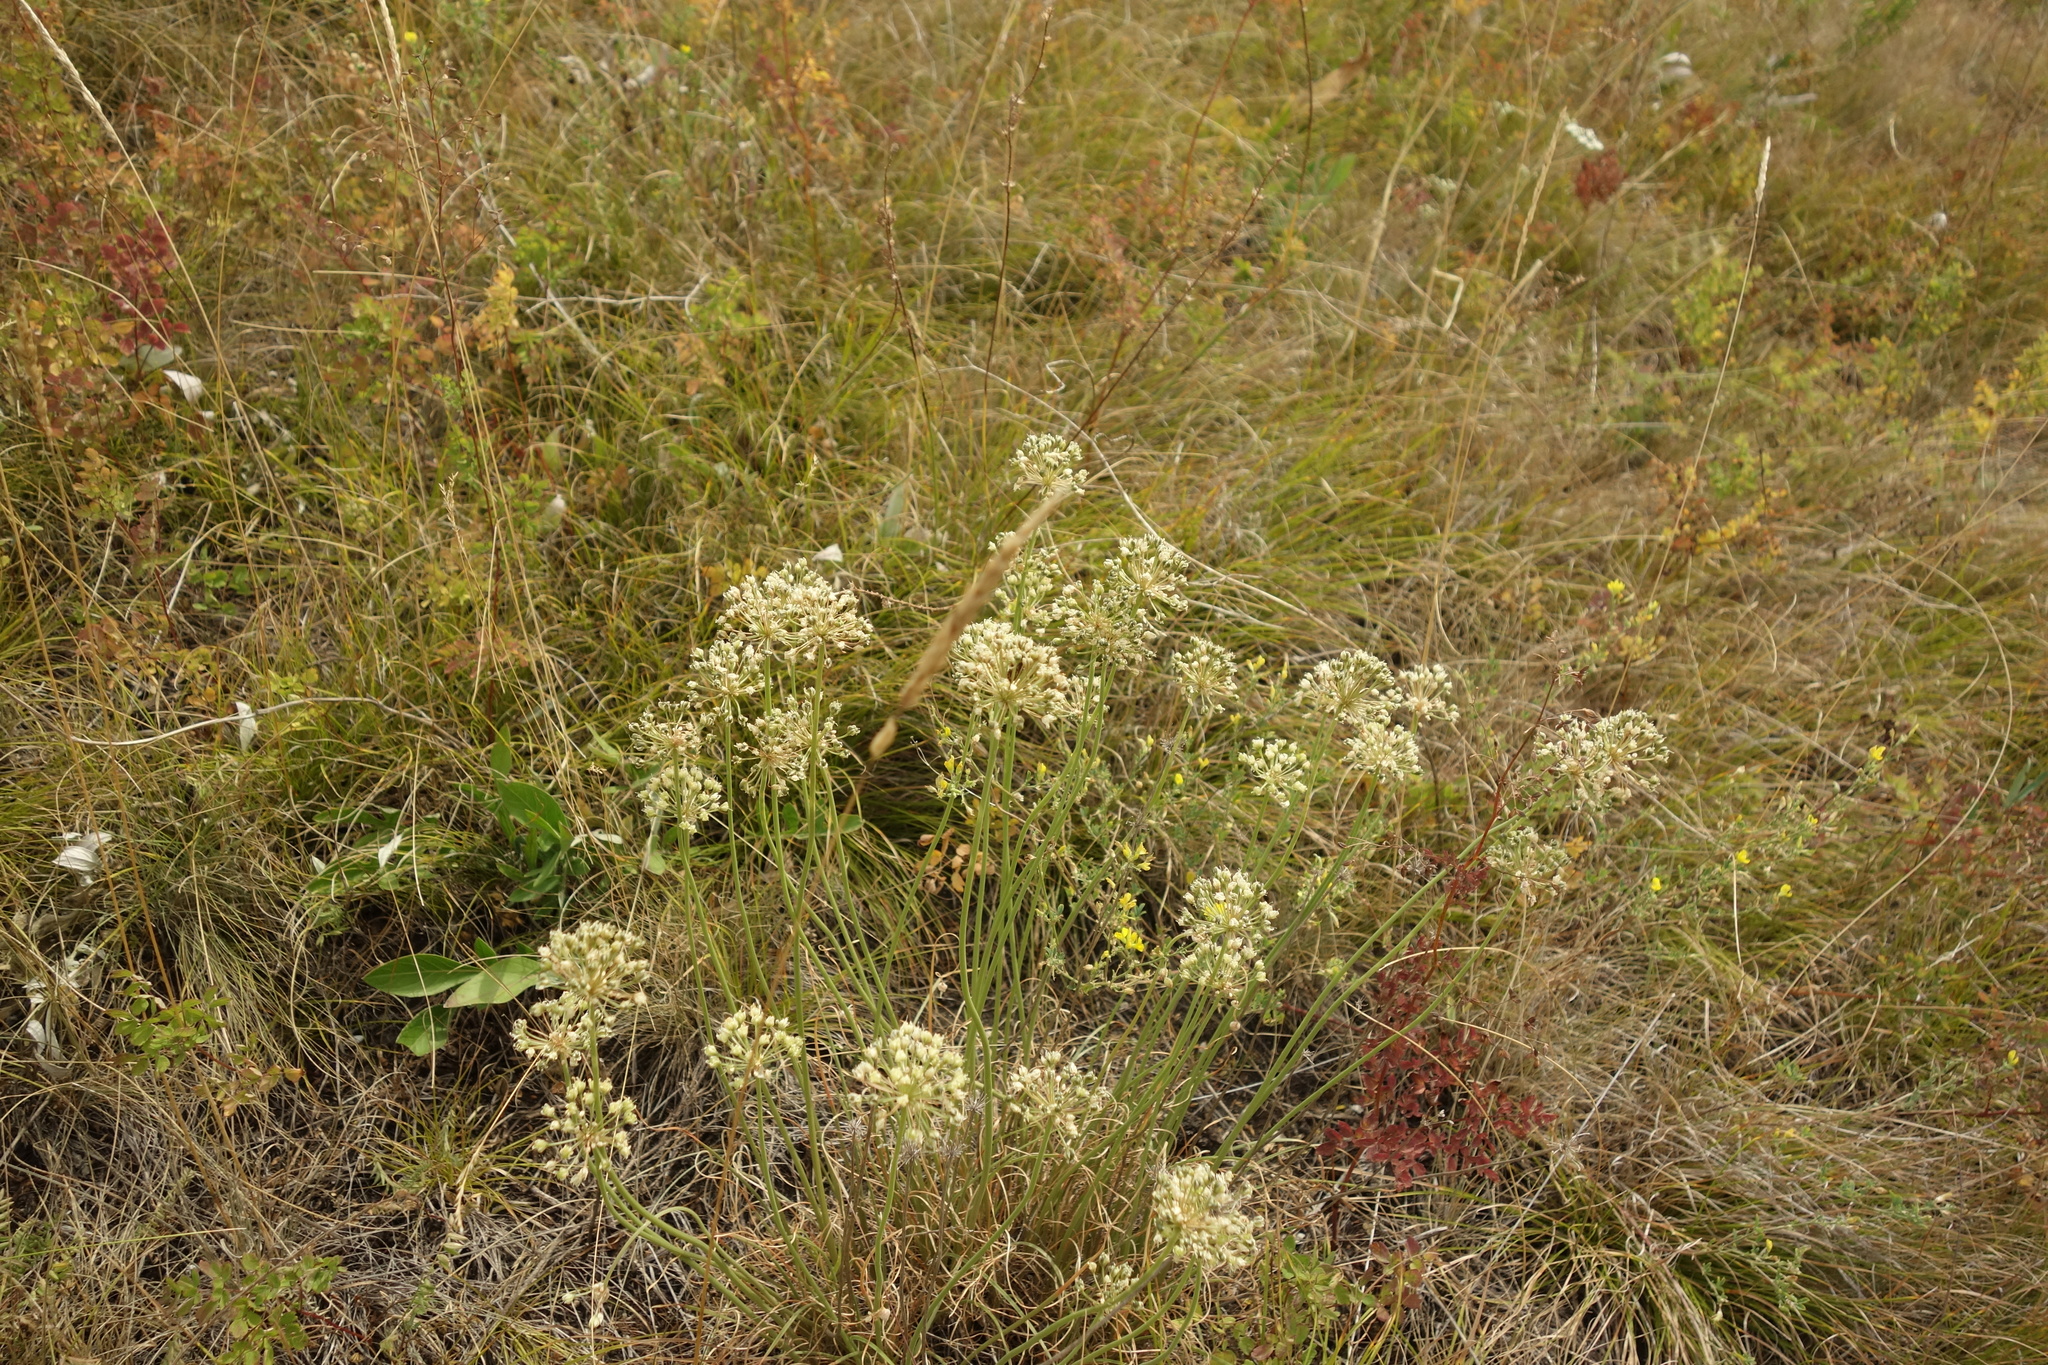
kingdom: Plantae
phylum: Tracheophyta
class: Liliopsida
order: Asparagales
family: Amaryllidaceae
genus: Allium
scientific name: Allium flavescens
